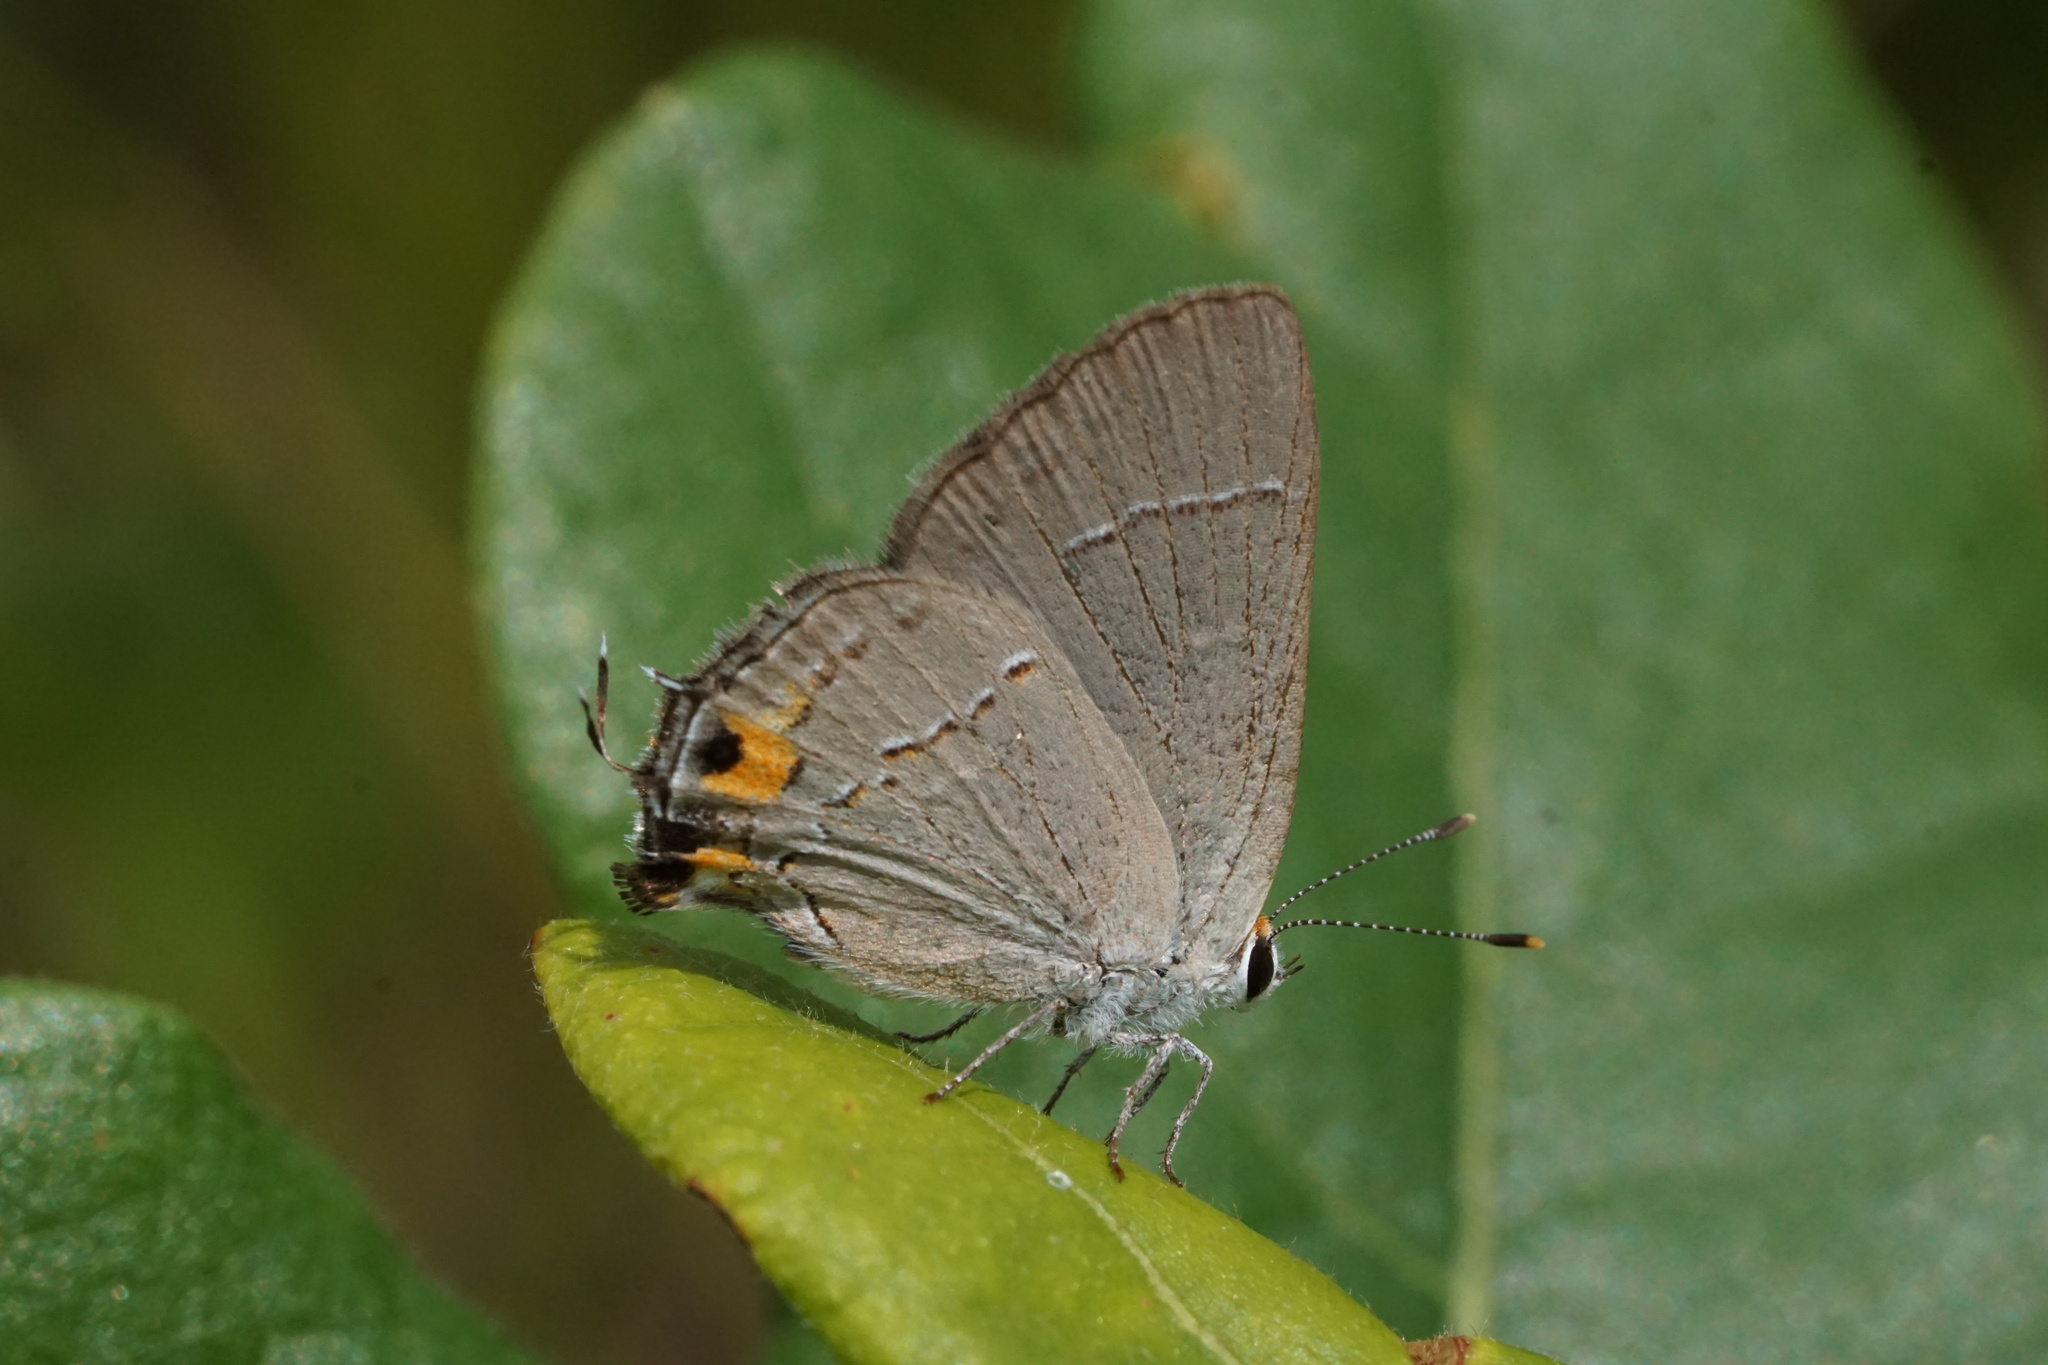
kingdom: Animalia
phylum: Arthropoda
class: Insecta
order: Lepidoptera
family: Lycaenidae
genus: Strymon
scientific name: Strymon melinus
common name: Gray hairstreak
